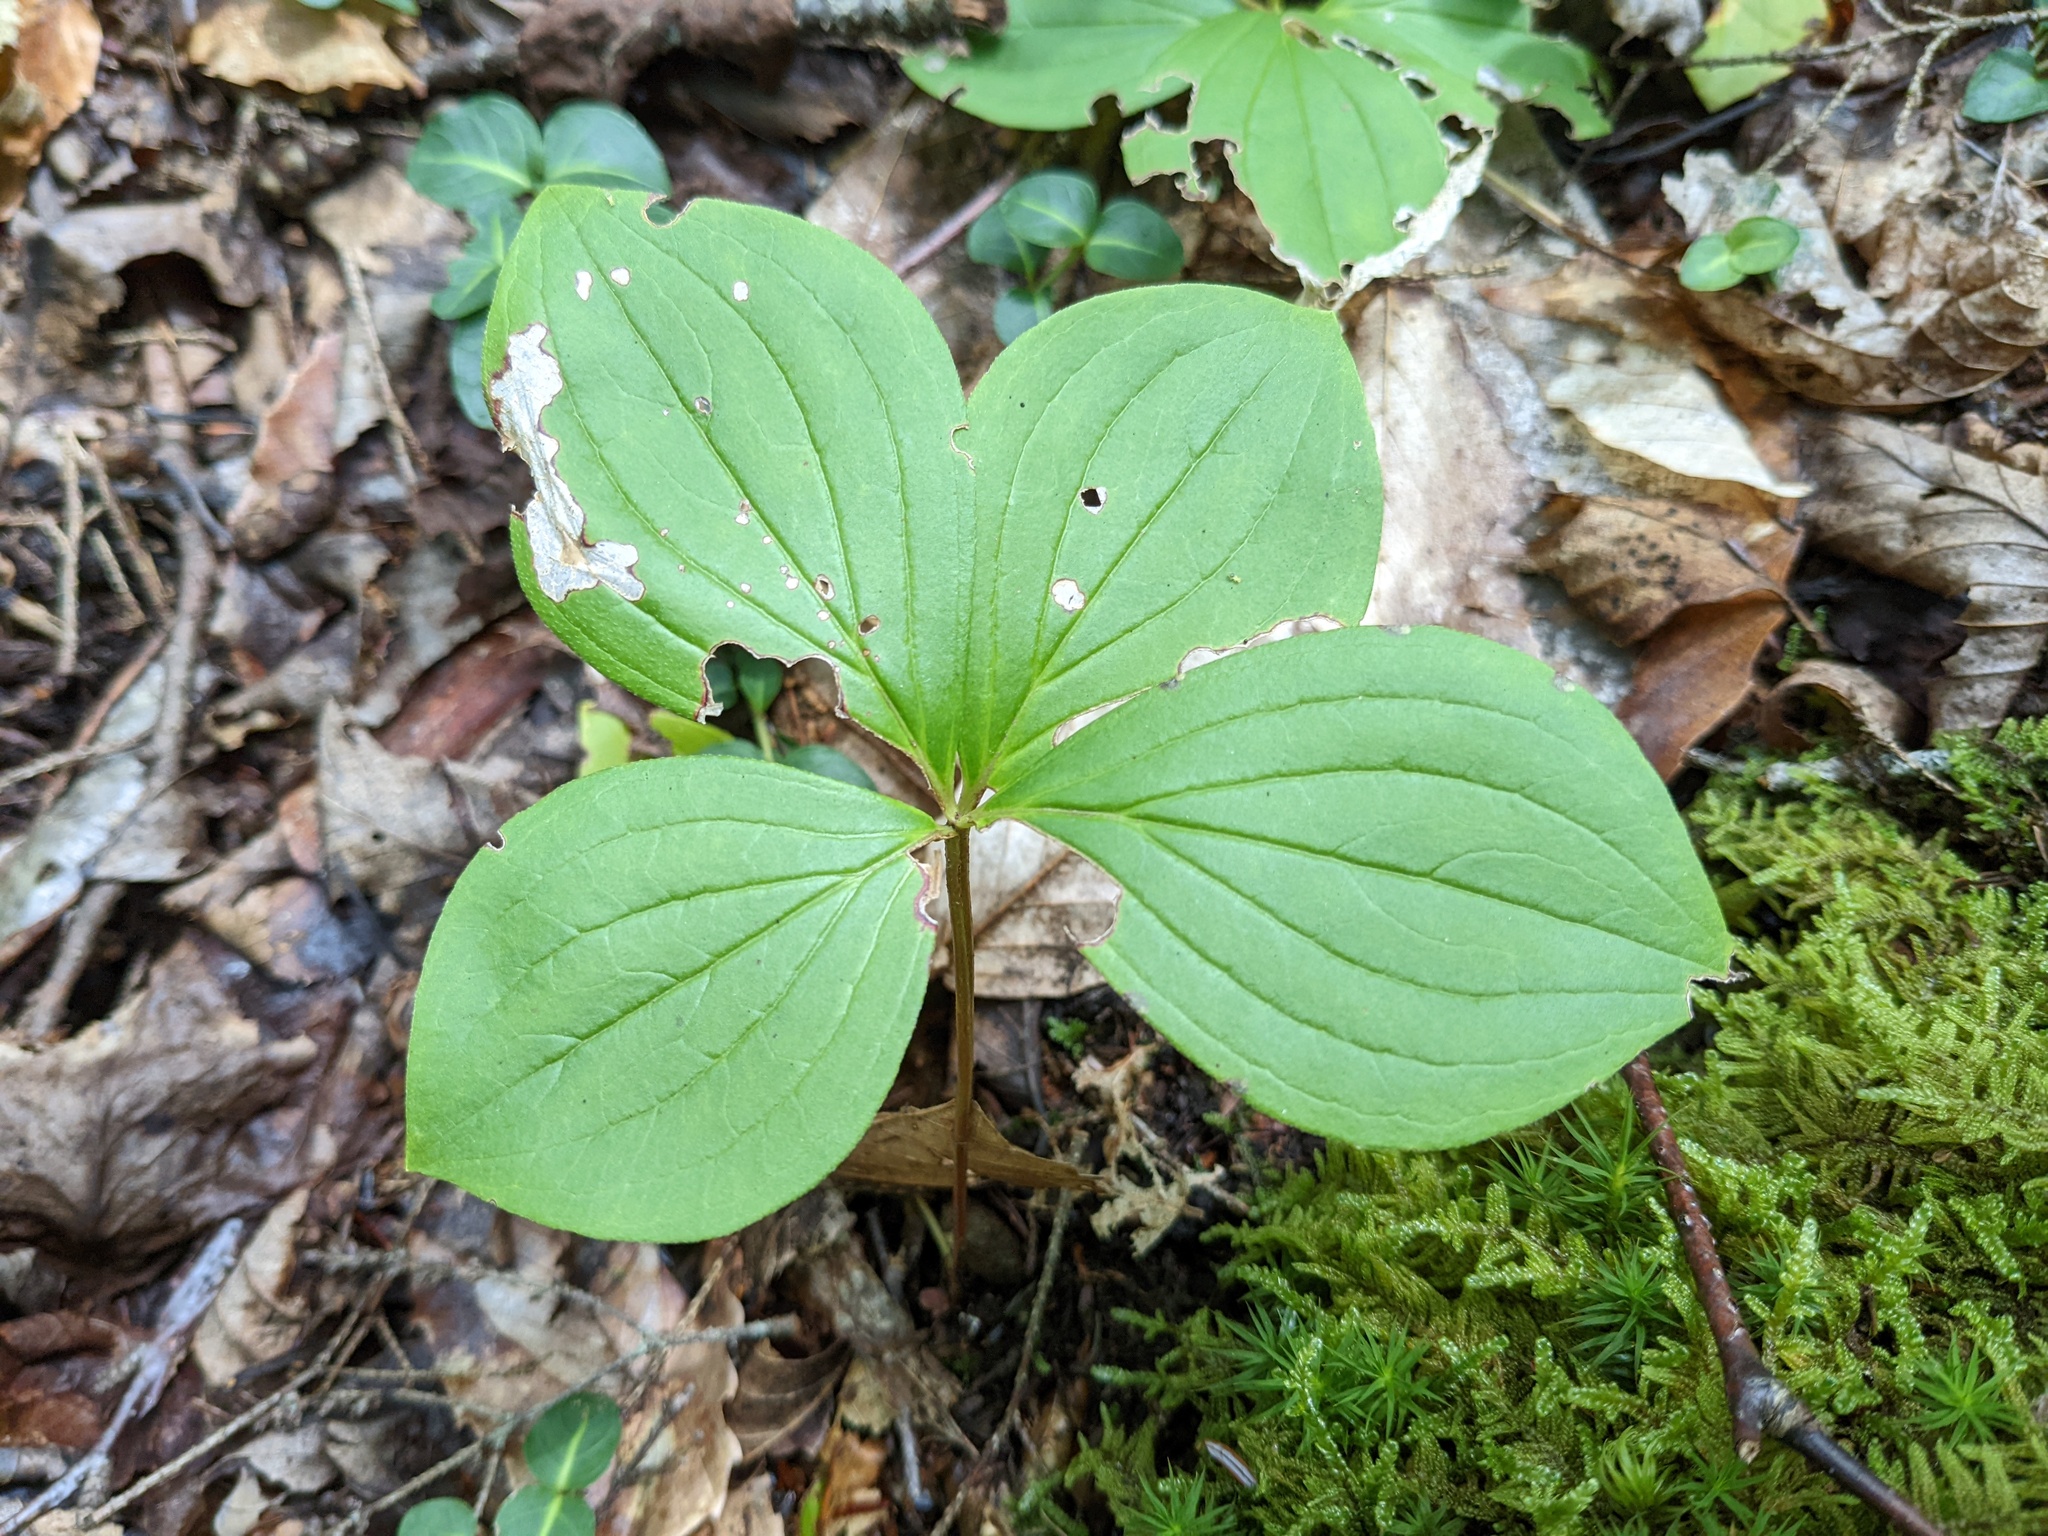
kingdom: Plantae
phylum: Tracheophyta
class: Magnoliopsida
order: Cornales
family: Cornaceae
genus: Cornus
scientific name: Cornus canadensis
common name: Creeping dogwood
